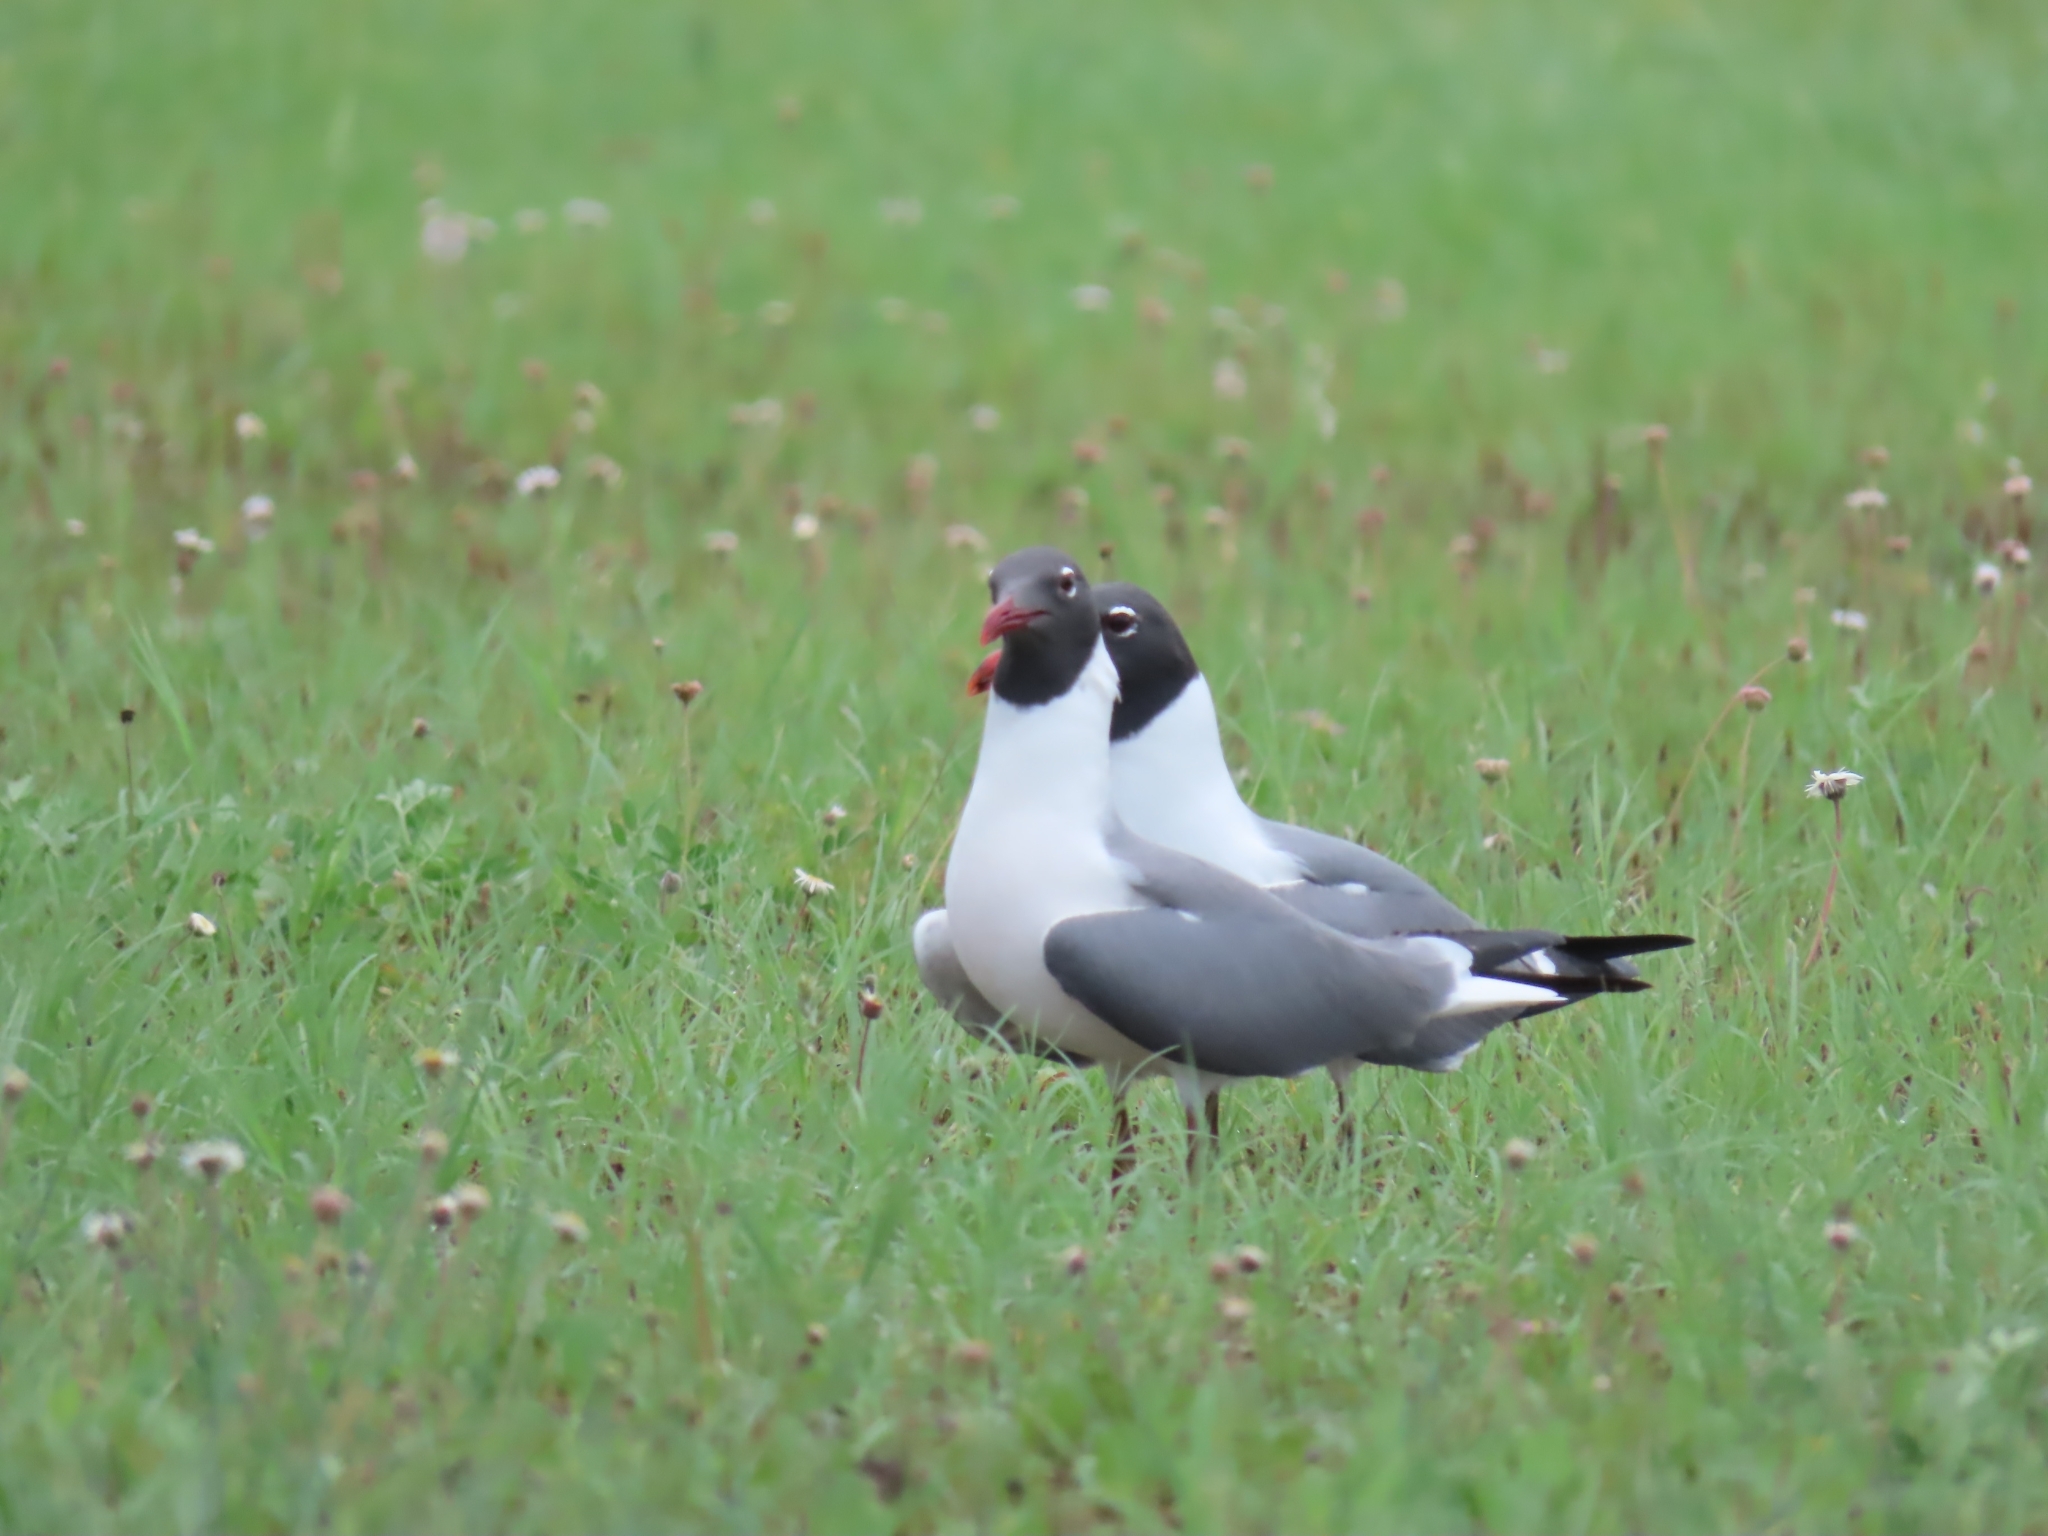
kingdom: Animalia
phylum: Chordata
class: Aves
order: Charadriiformes
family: Laridae
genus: Leucophaeus
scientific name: Leucophaeus atricilla
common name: Laughing gull
